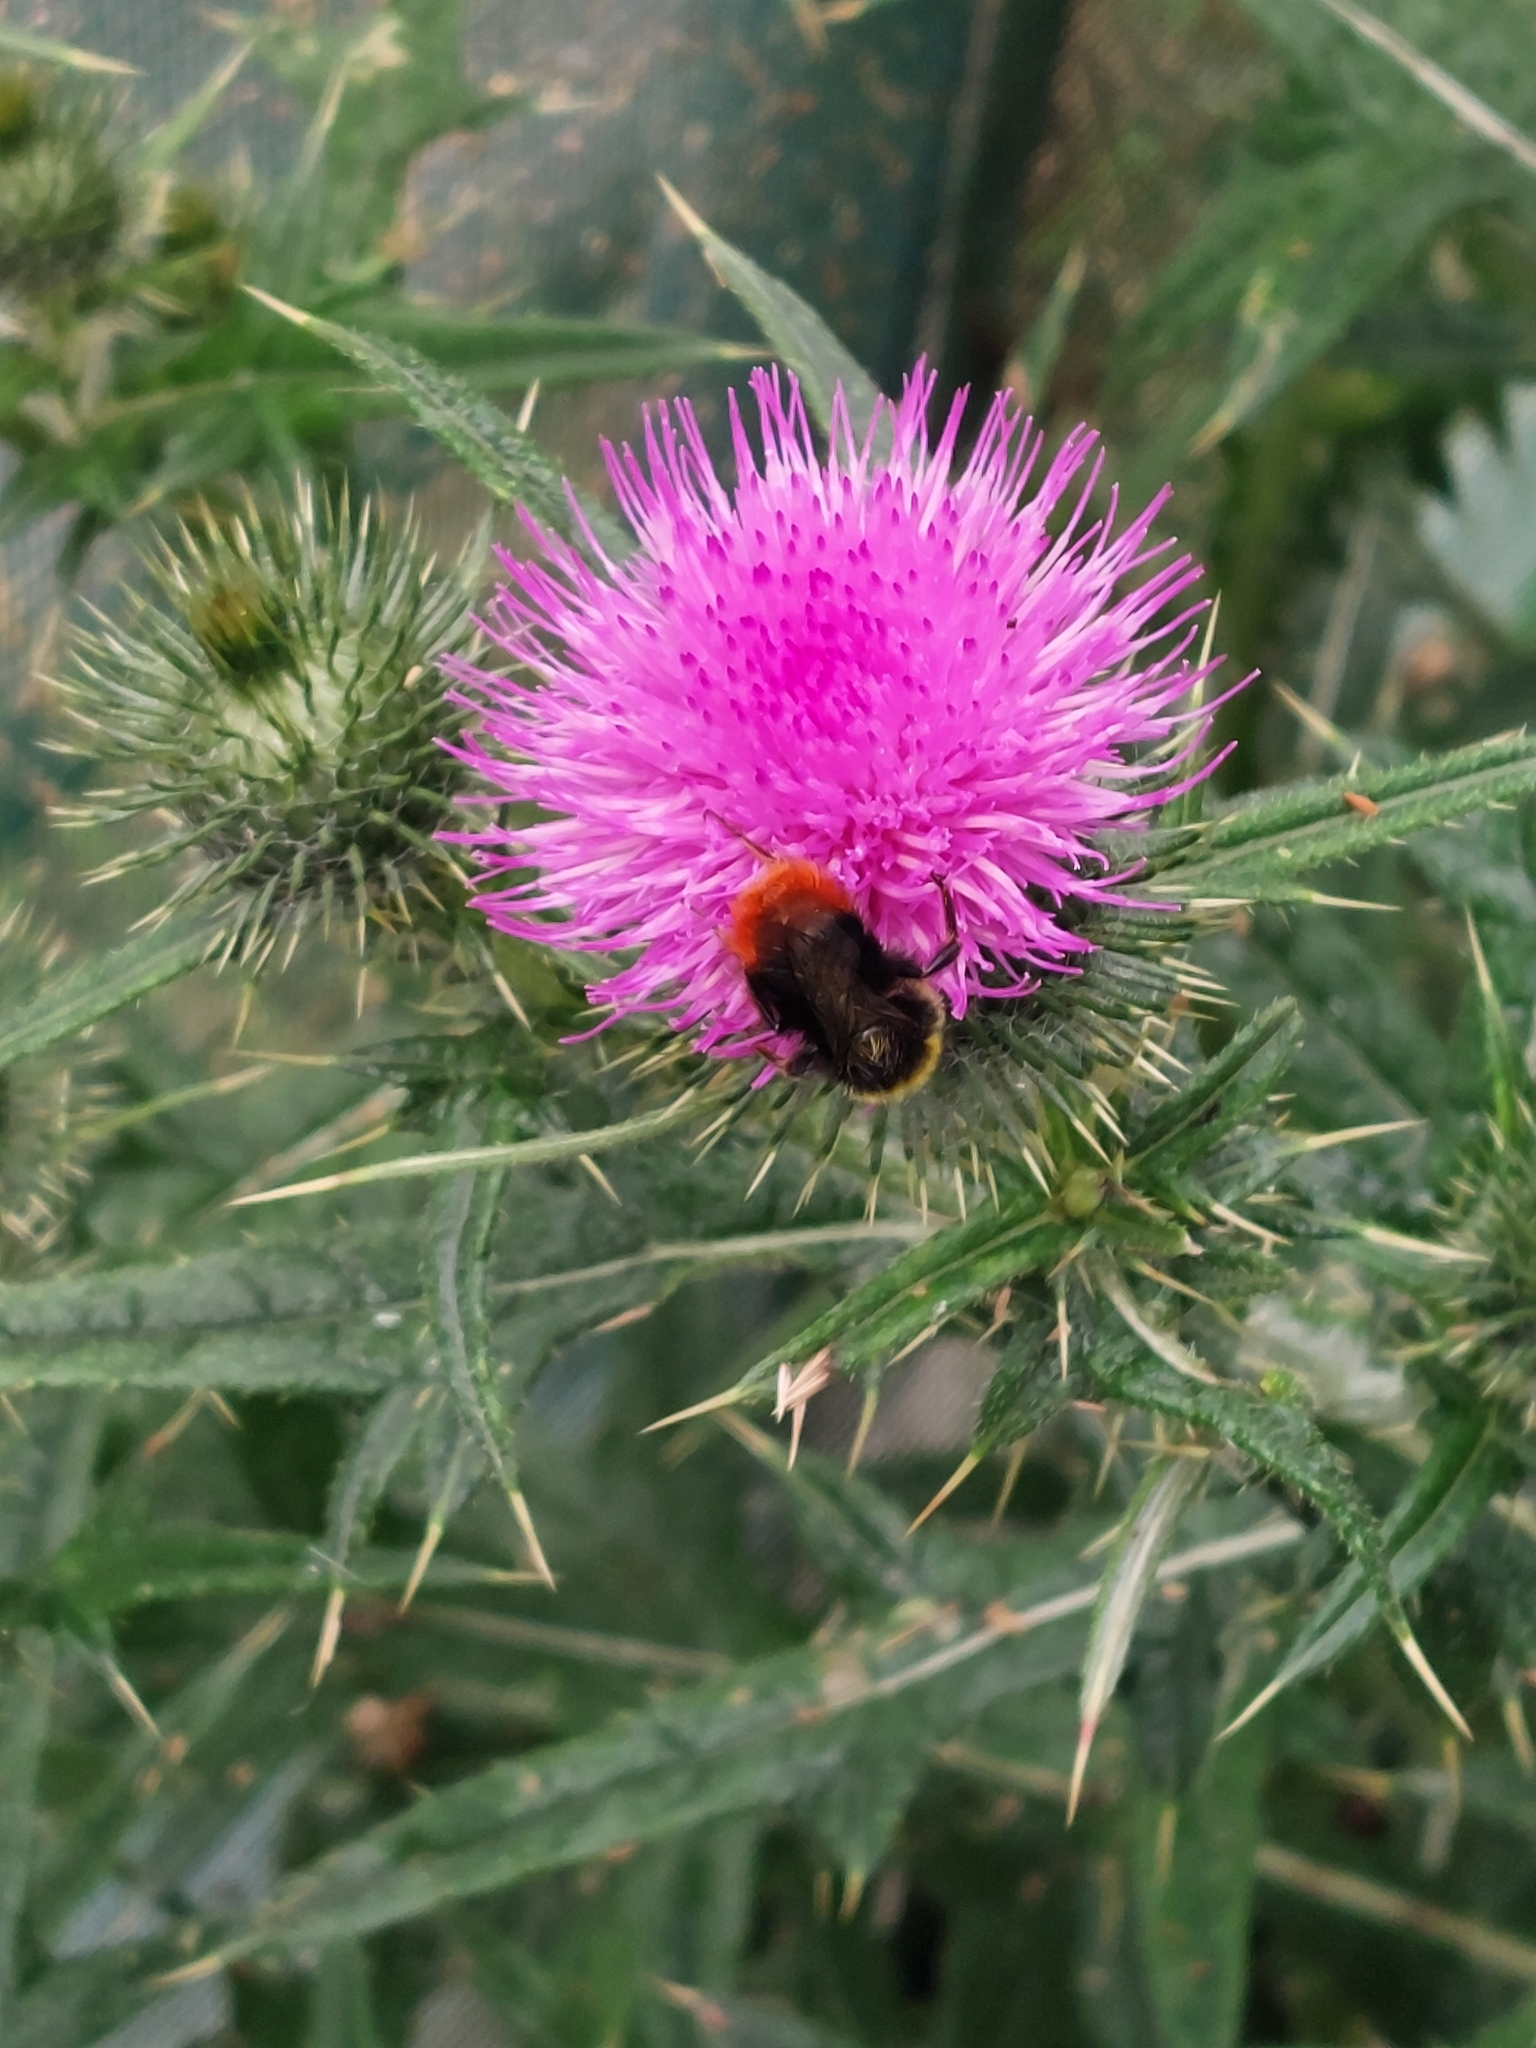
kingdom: Plantae
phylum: Tracheophyta
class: Magnoliopsida
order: Asterales
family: Asteraceae
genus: Cirsium
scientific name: Cirsium vulgare
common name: Bull thistle
